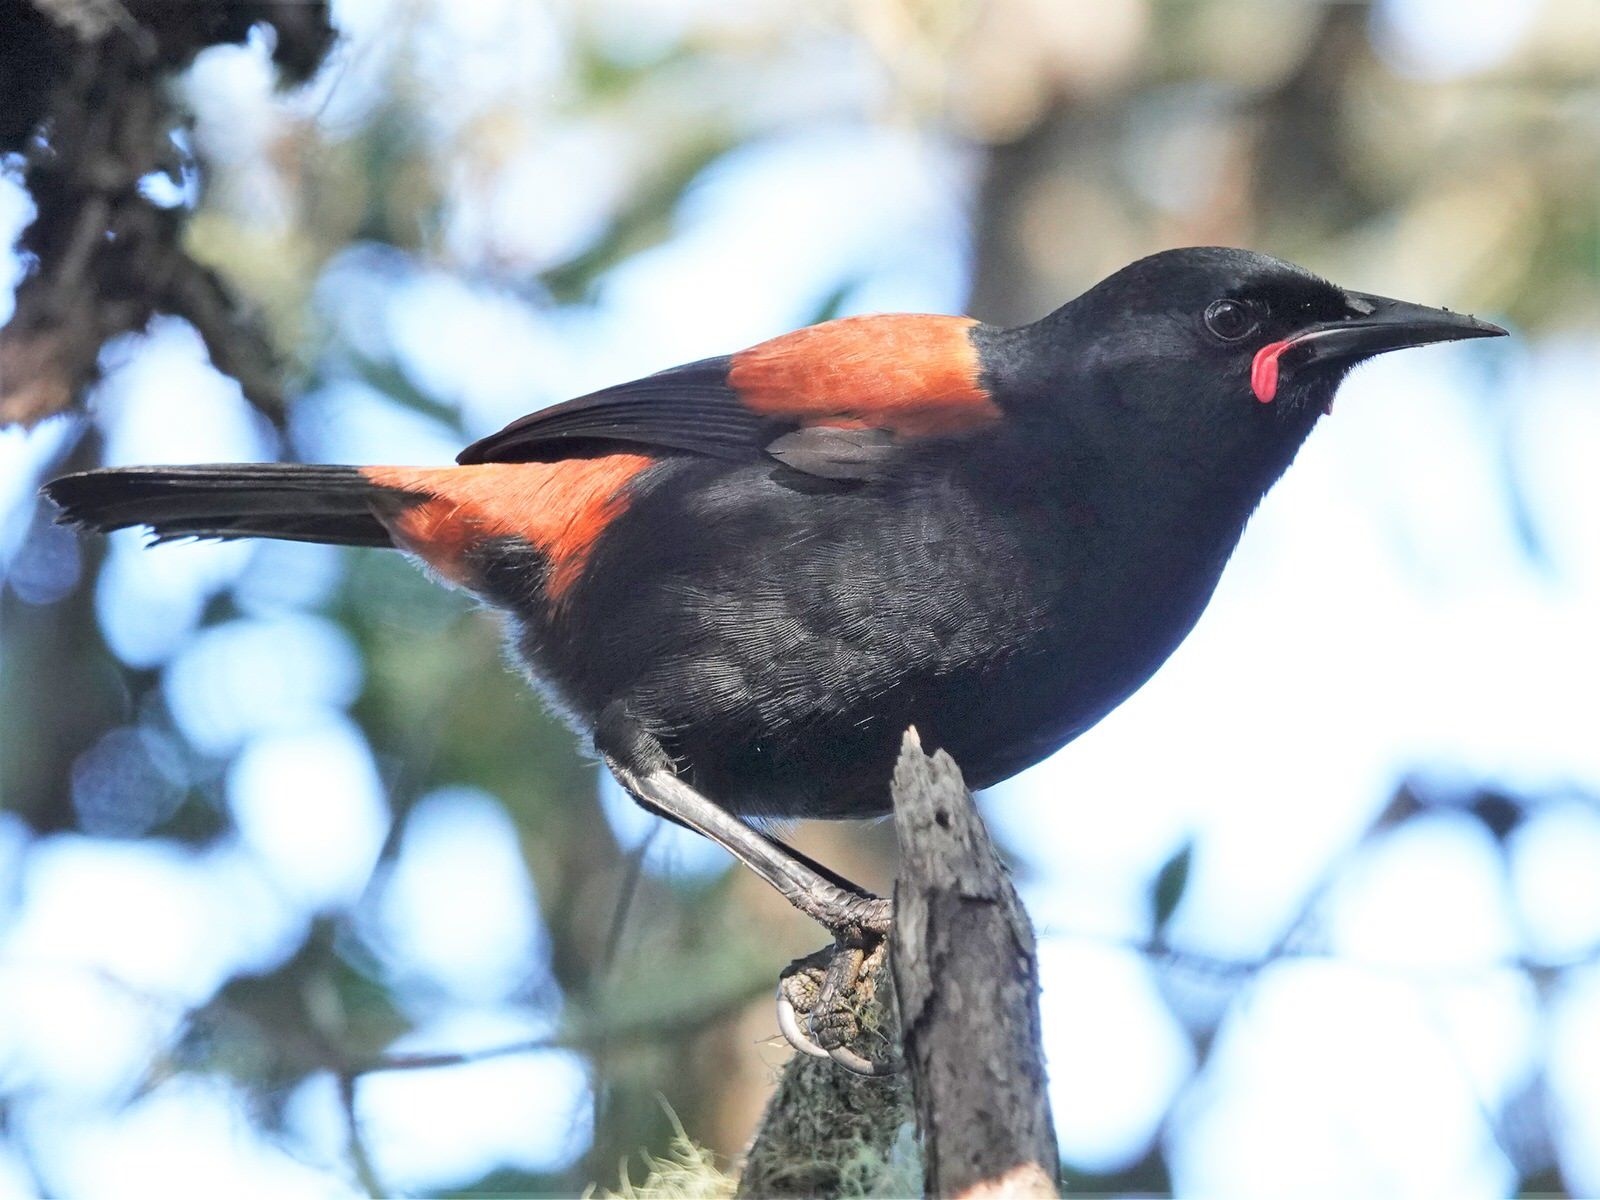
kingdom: Animalia
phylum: Chordata
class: Aves
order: Passeriformes
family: Callaeatidae
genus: Philesturnus
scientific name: Philesturnus carunculatus
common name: South island saddleback
